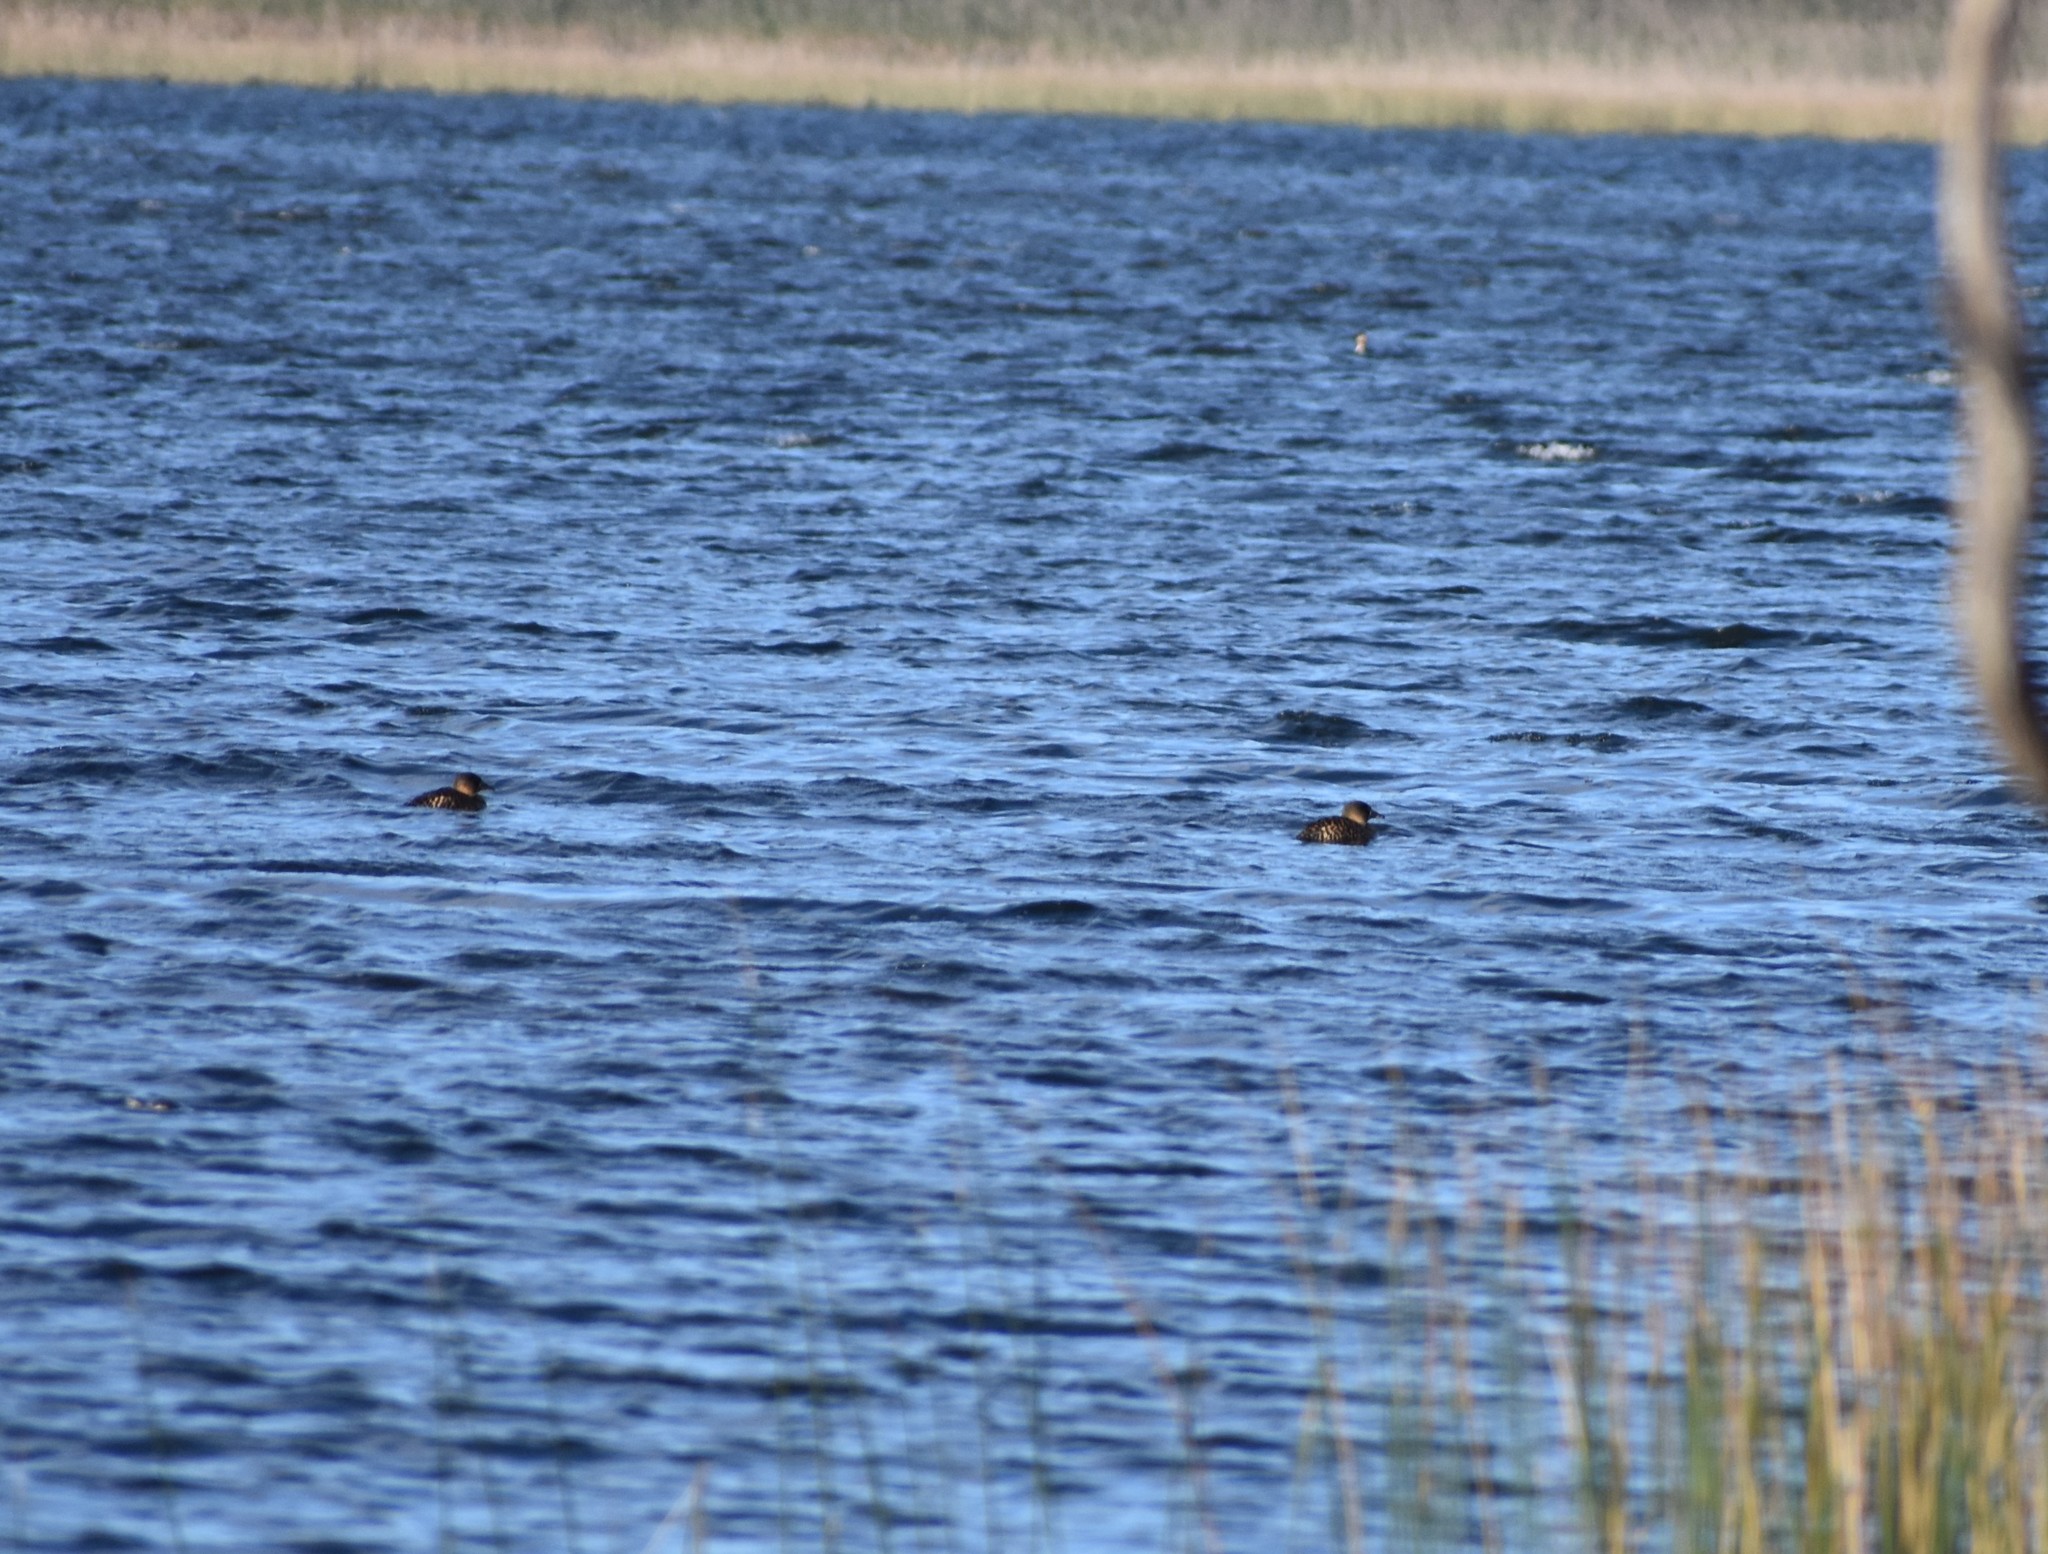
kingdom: Animalia
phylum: Chordata
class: Aves
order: Anseriformes
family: Anatidae
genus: Thalassornis
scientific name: Thalassornis leuconotus
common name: White-backed duck
